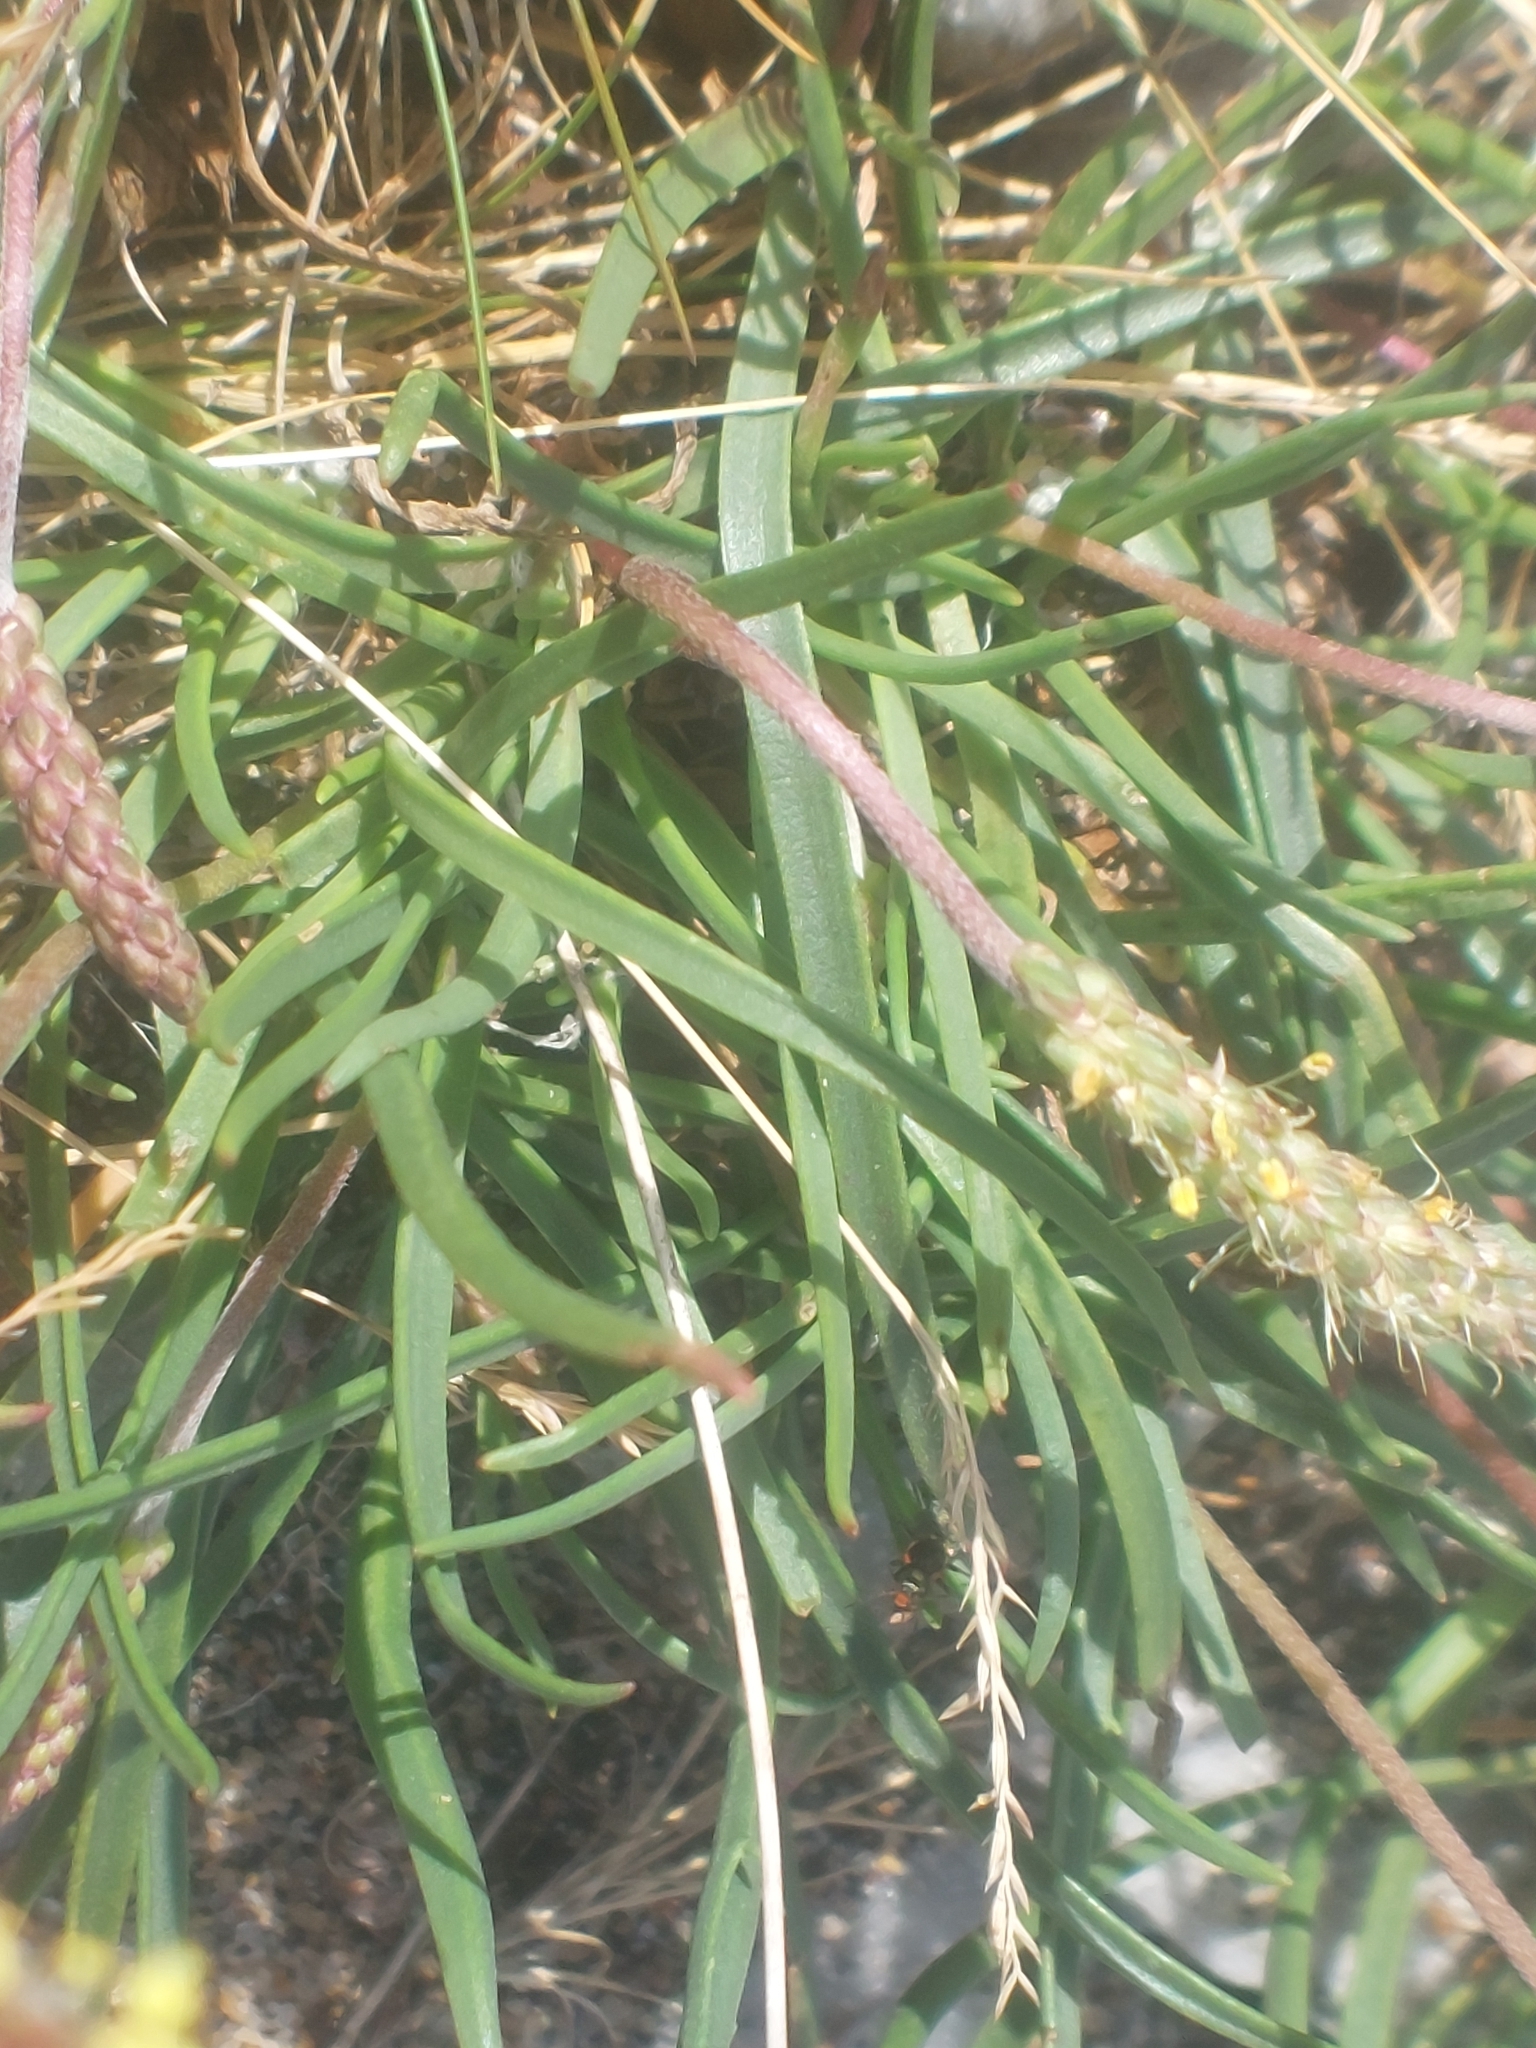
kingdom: Plantae
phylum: Tracheophyta
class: Magnoliopsida
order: Lamiales
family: Plantaginaceae
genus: Plantago
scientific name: Plantago maritima
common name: Sea plantain
